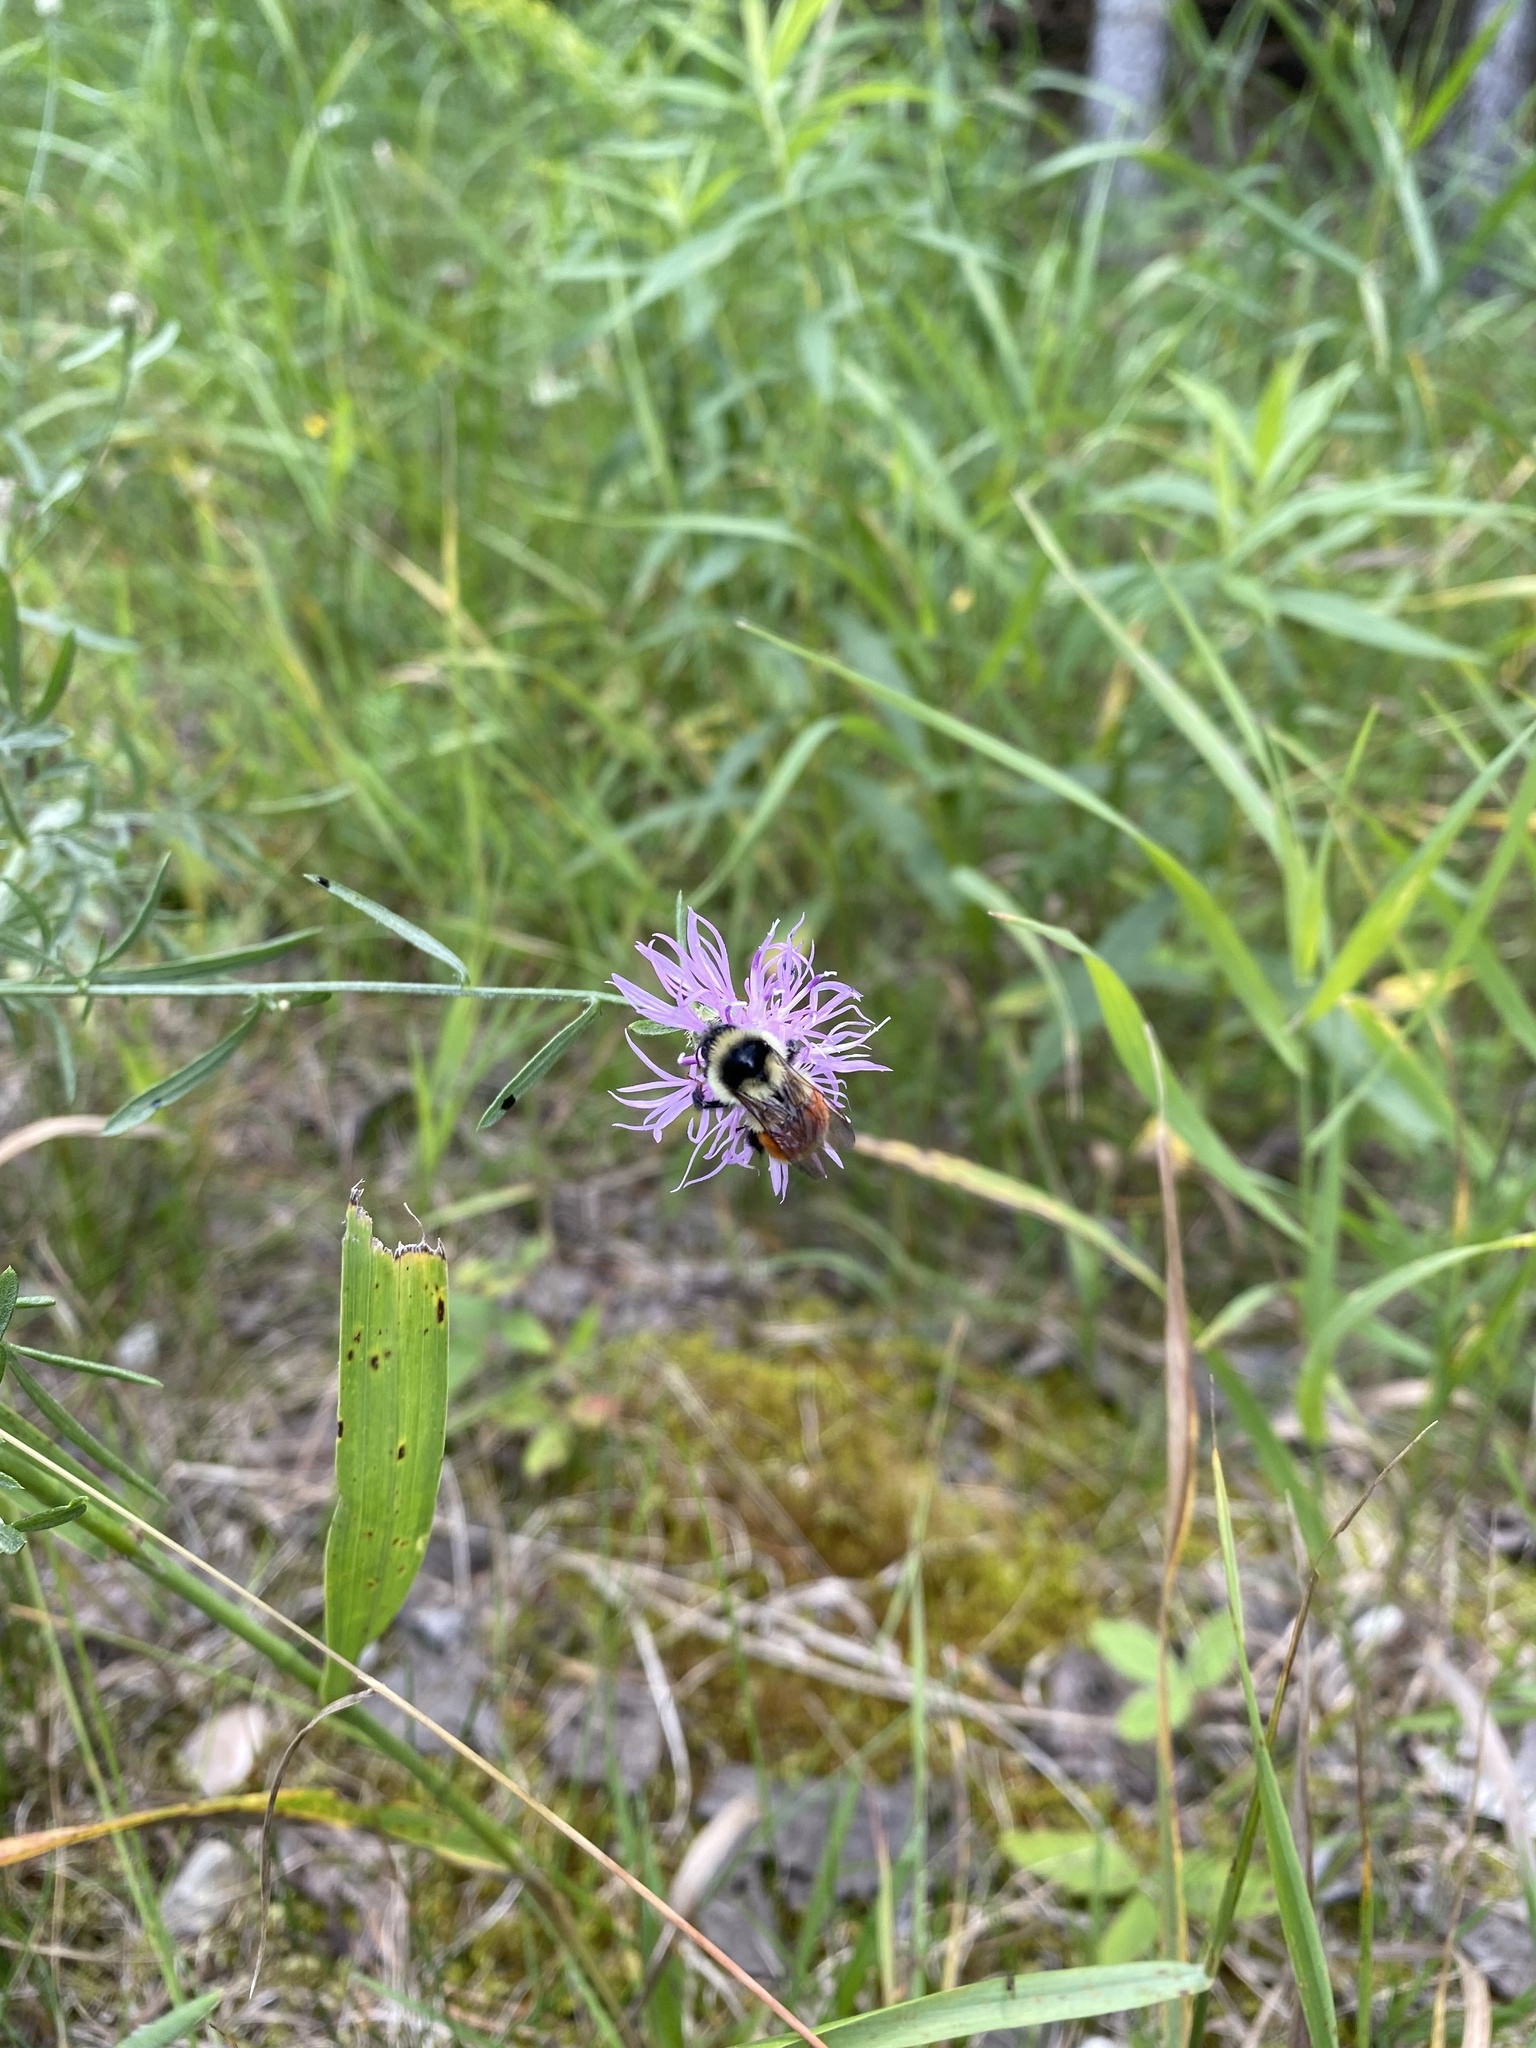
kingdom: Animalia
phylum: Arthropoda
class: Insecta
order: Hymenoptera
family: Apidae
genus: Bombus
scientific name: Bombus ternarius
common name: Tri-colored bumble bee
